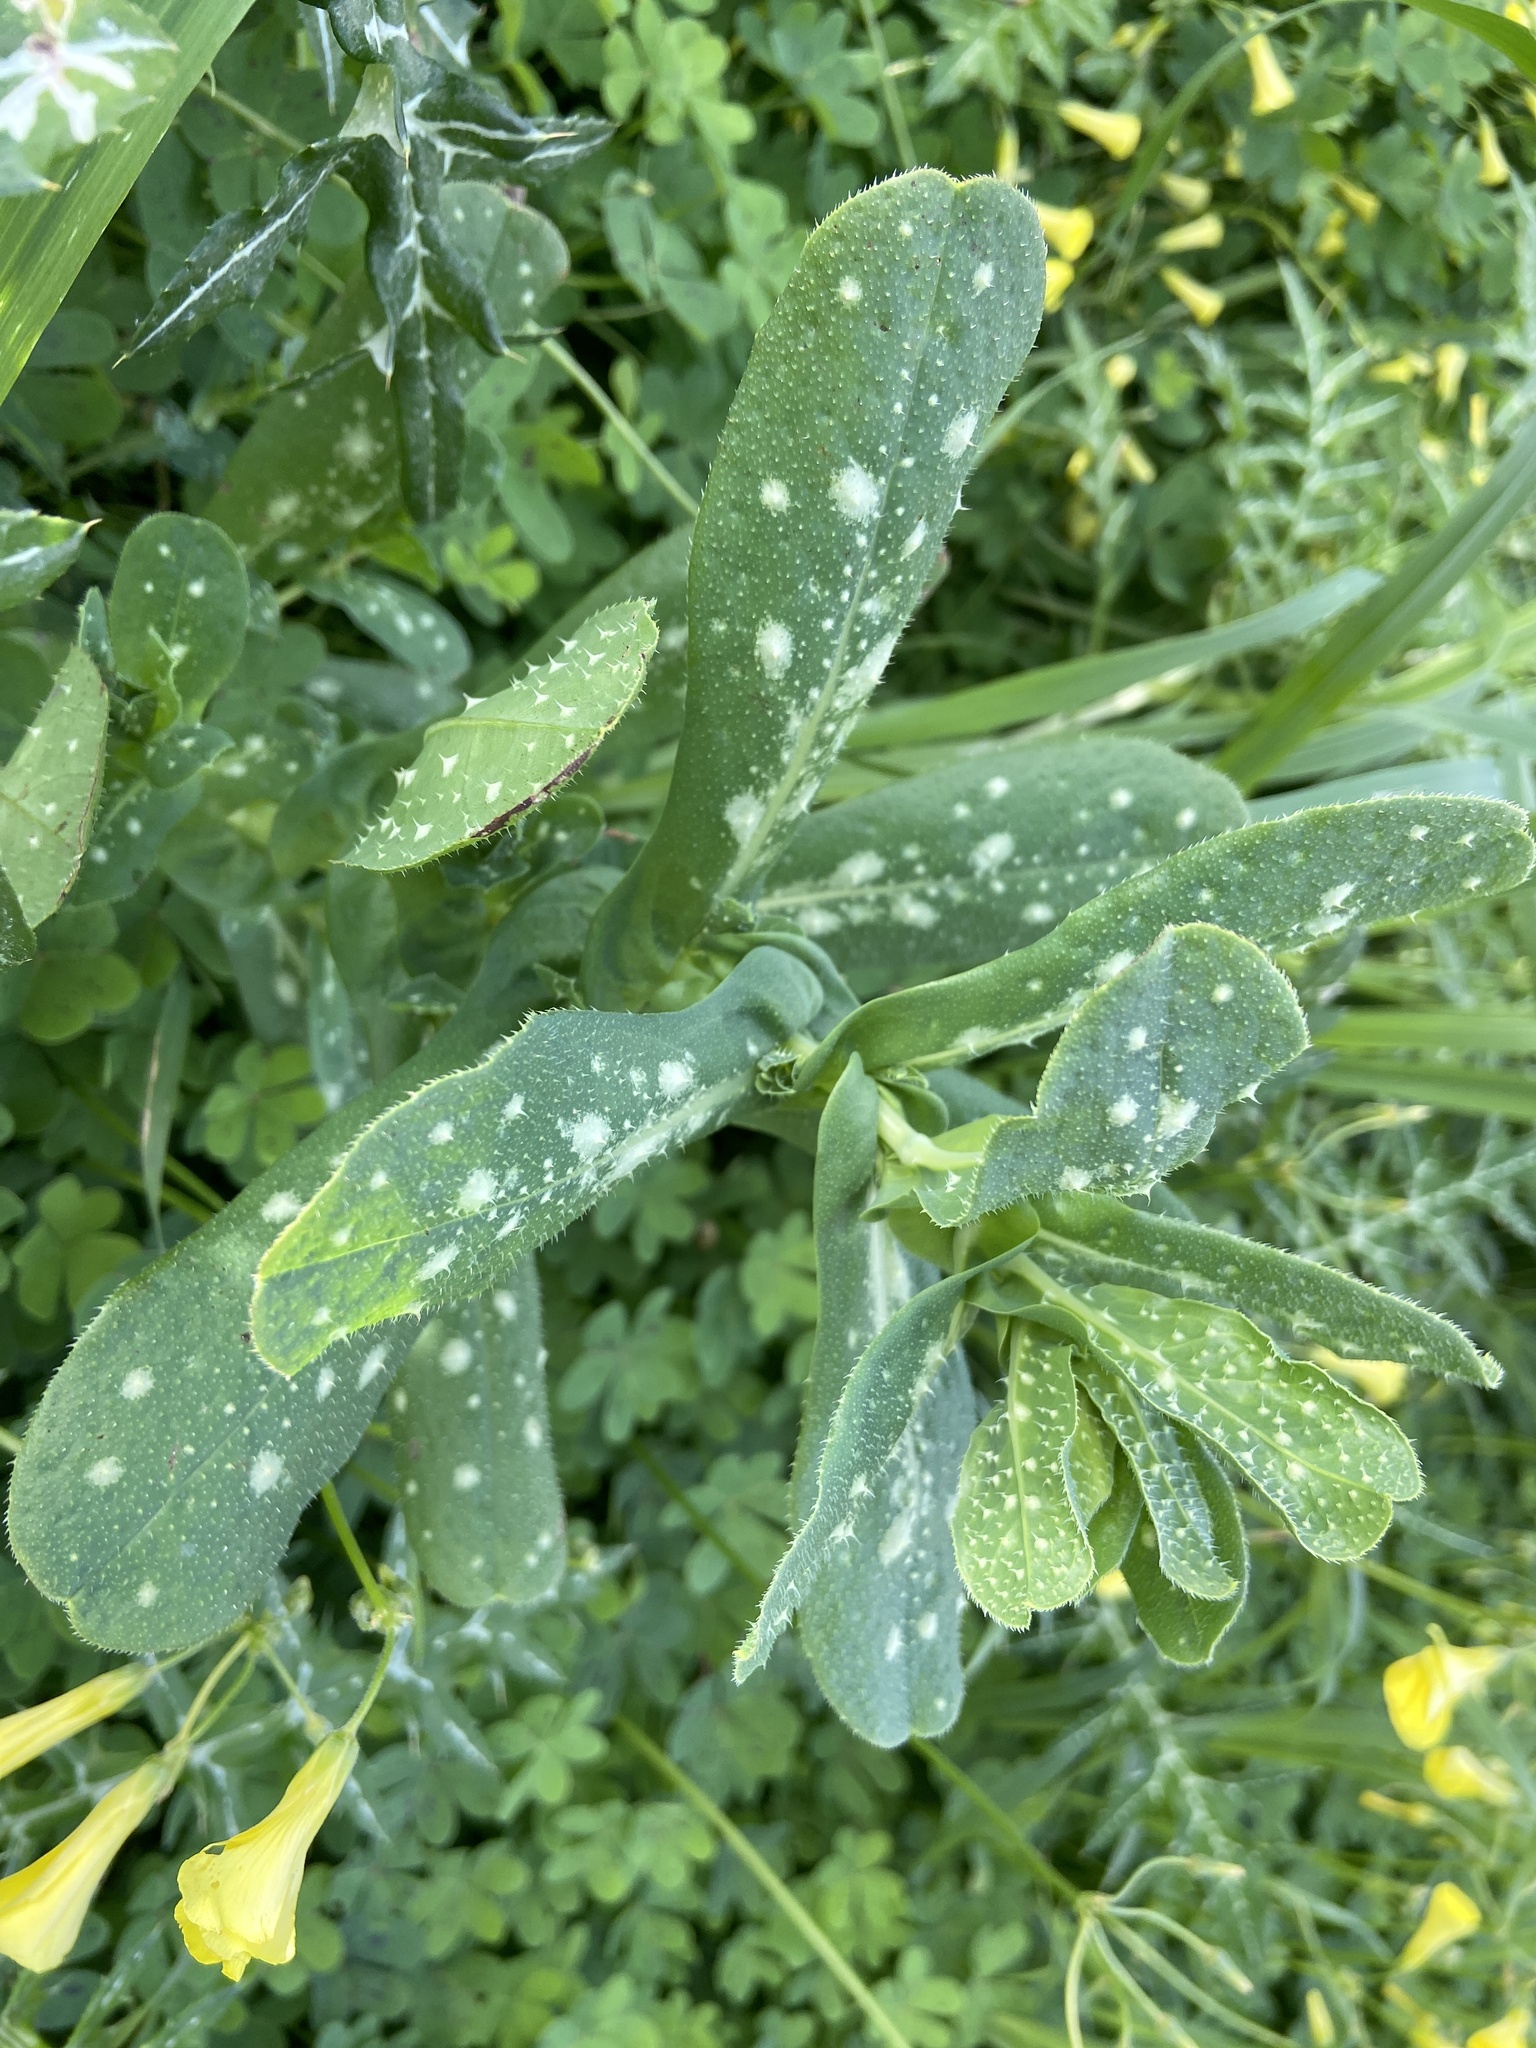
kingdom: Plantae
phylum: Tracheophyta
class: Magnoliopsida
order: Boraginales
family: Boraginaceae
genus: Cerinthe
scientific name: Cerinthe major
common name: Greater honeywort
